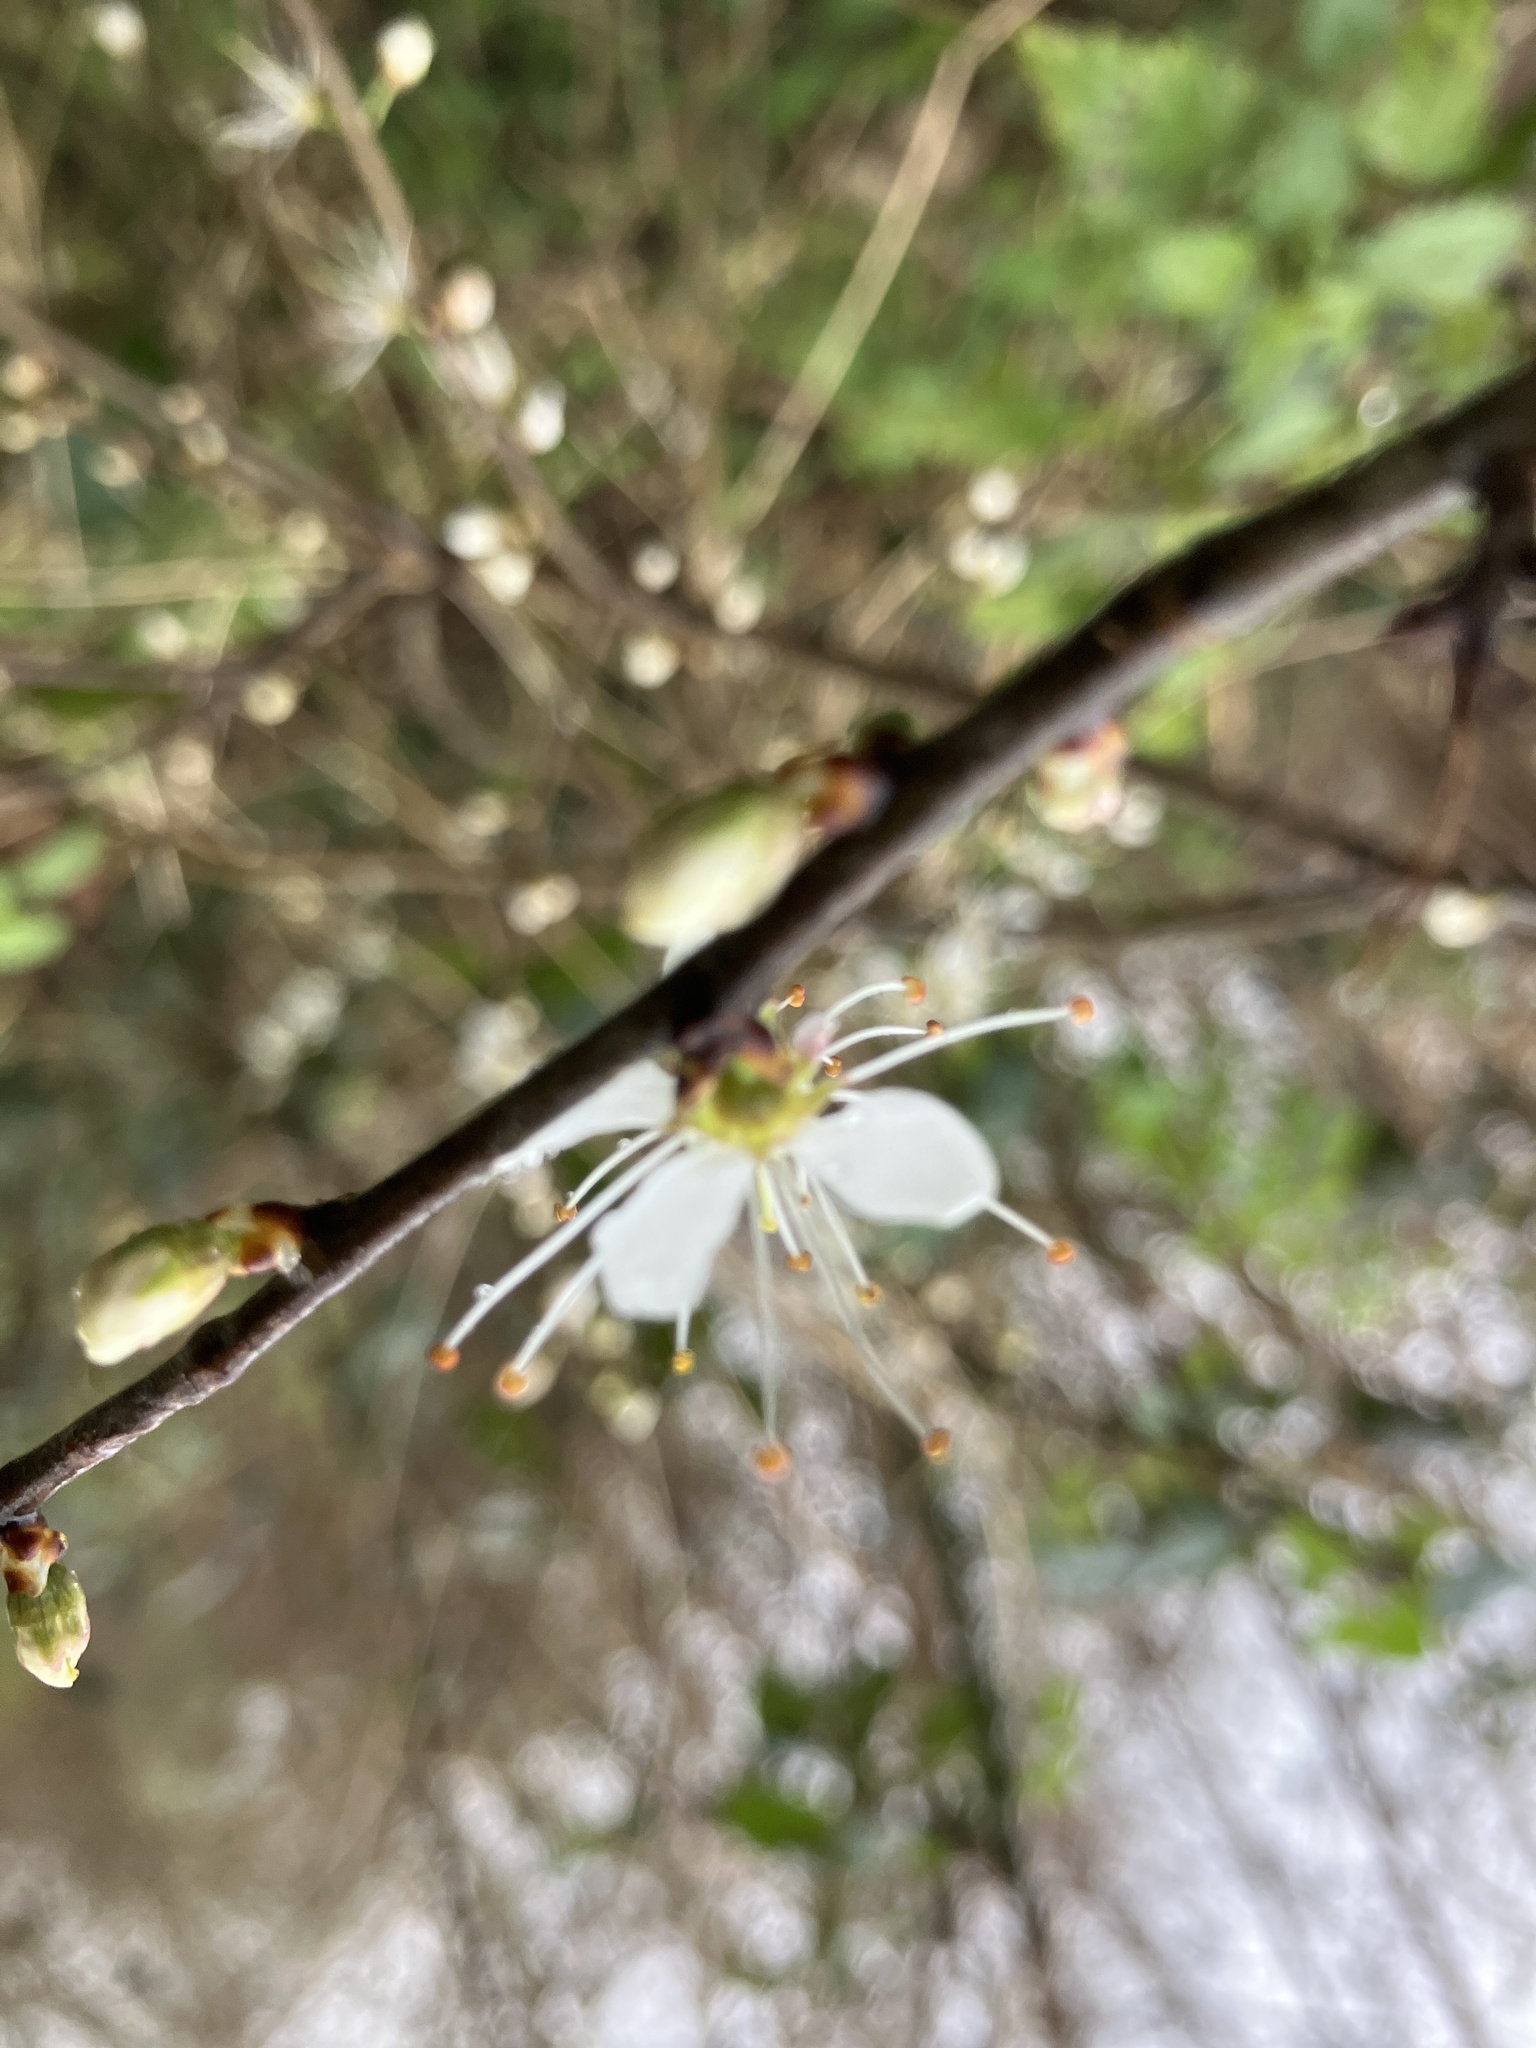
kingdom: Plantae
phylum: Tracheophyta
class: Magnoliopsida
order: Rosales
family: Rosaceae
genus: Prunus
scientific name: Prunus spinosa
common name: Blackthorn
